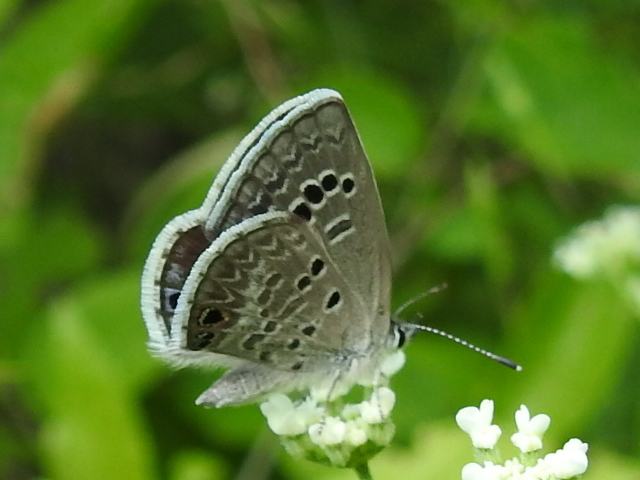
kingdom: Animalia
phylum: Arthropoda
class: Insecta
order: Lepidoptera
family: Lycaenidae
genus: Echinargus
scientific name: Echinargus isola
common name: Reakirt's blue
